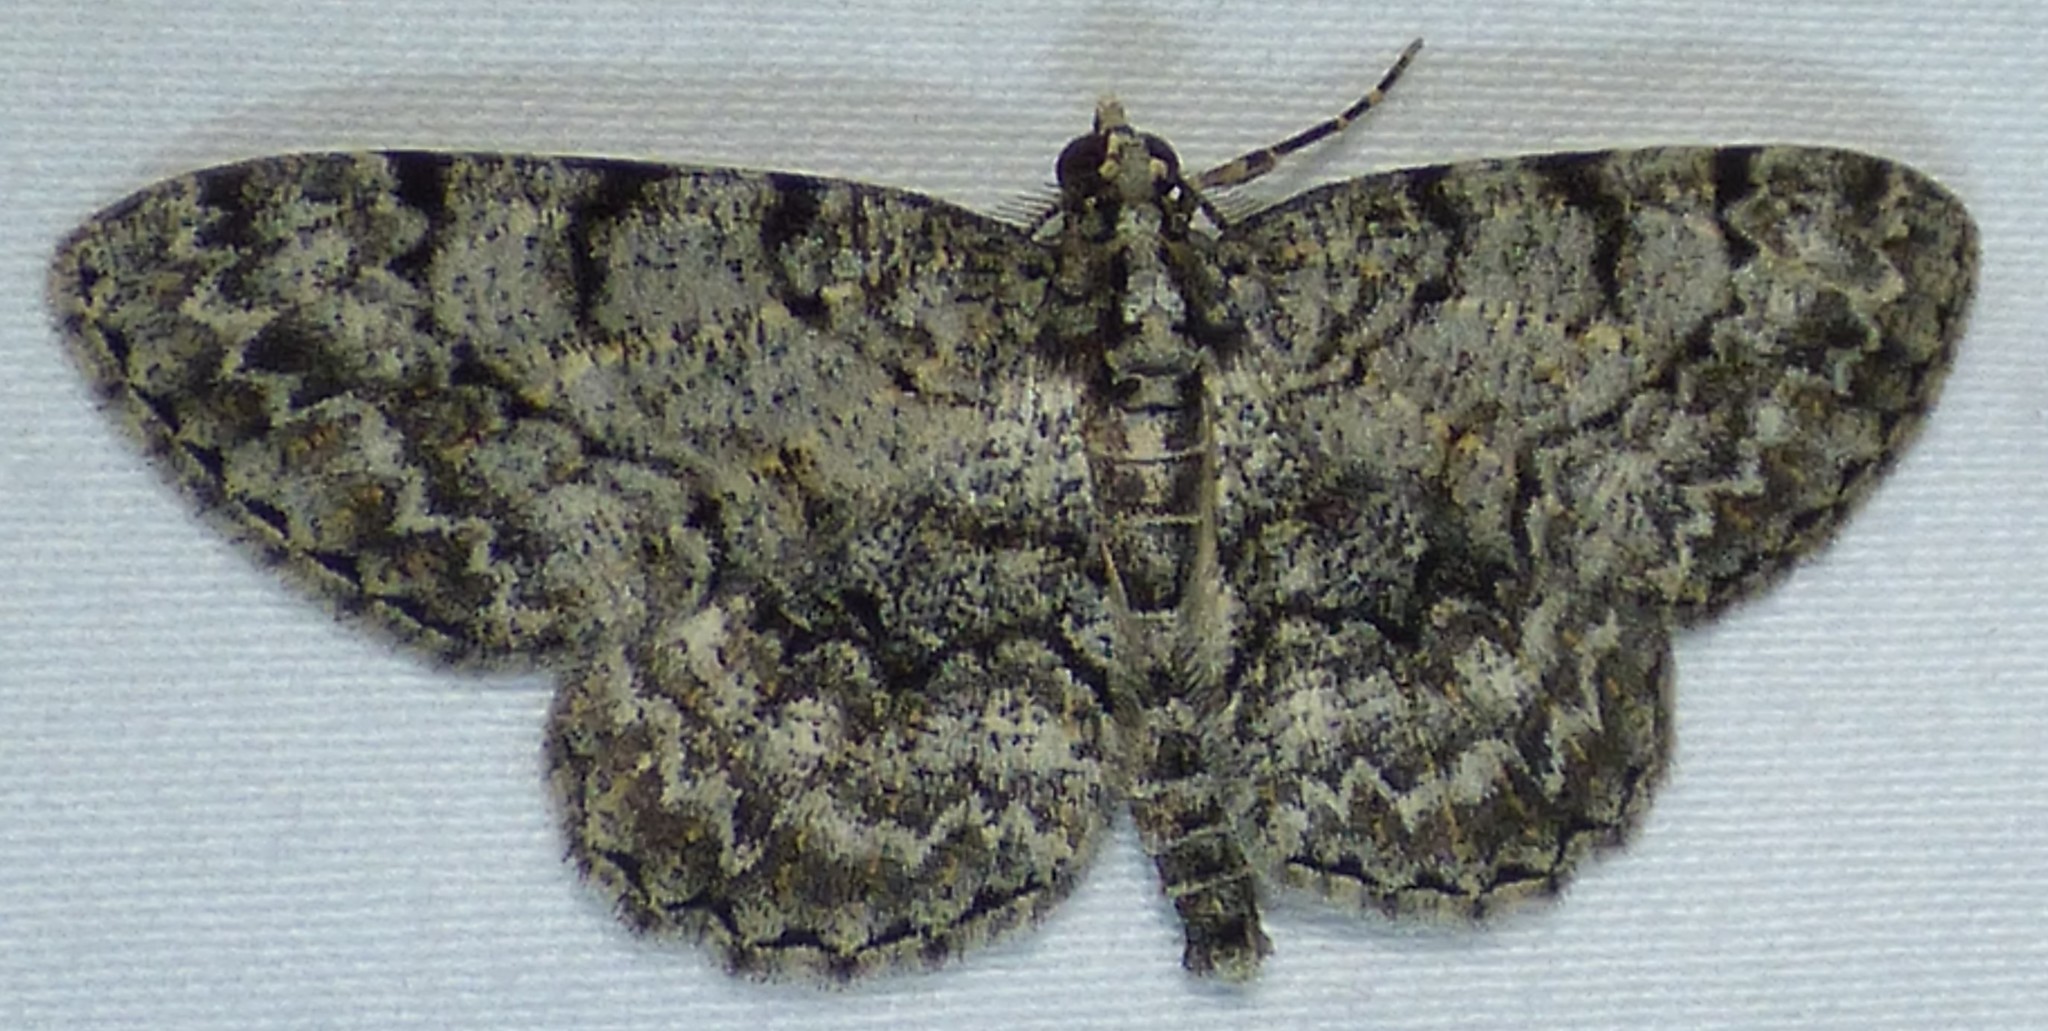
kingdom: Animalia
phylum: Arthropoda
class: Insecta
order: Lepidoptera
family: Geometridae
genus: Protoboarmia
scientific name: Protoboarmia porcelaria
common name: Porcelain gray
